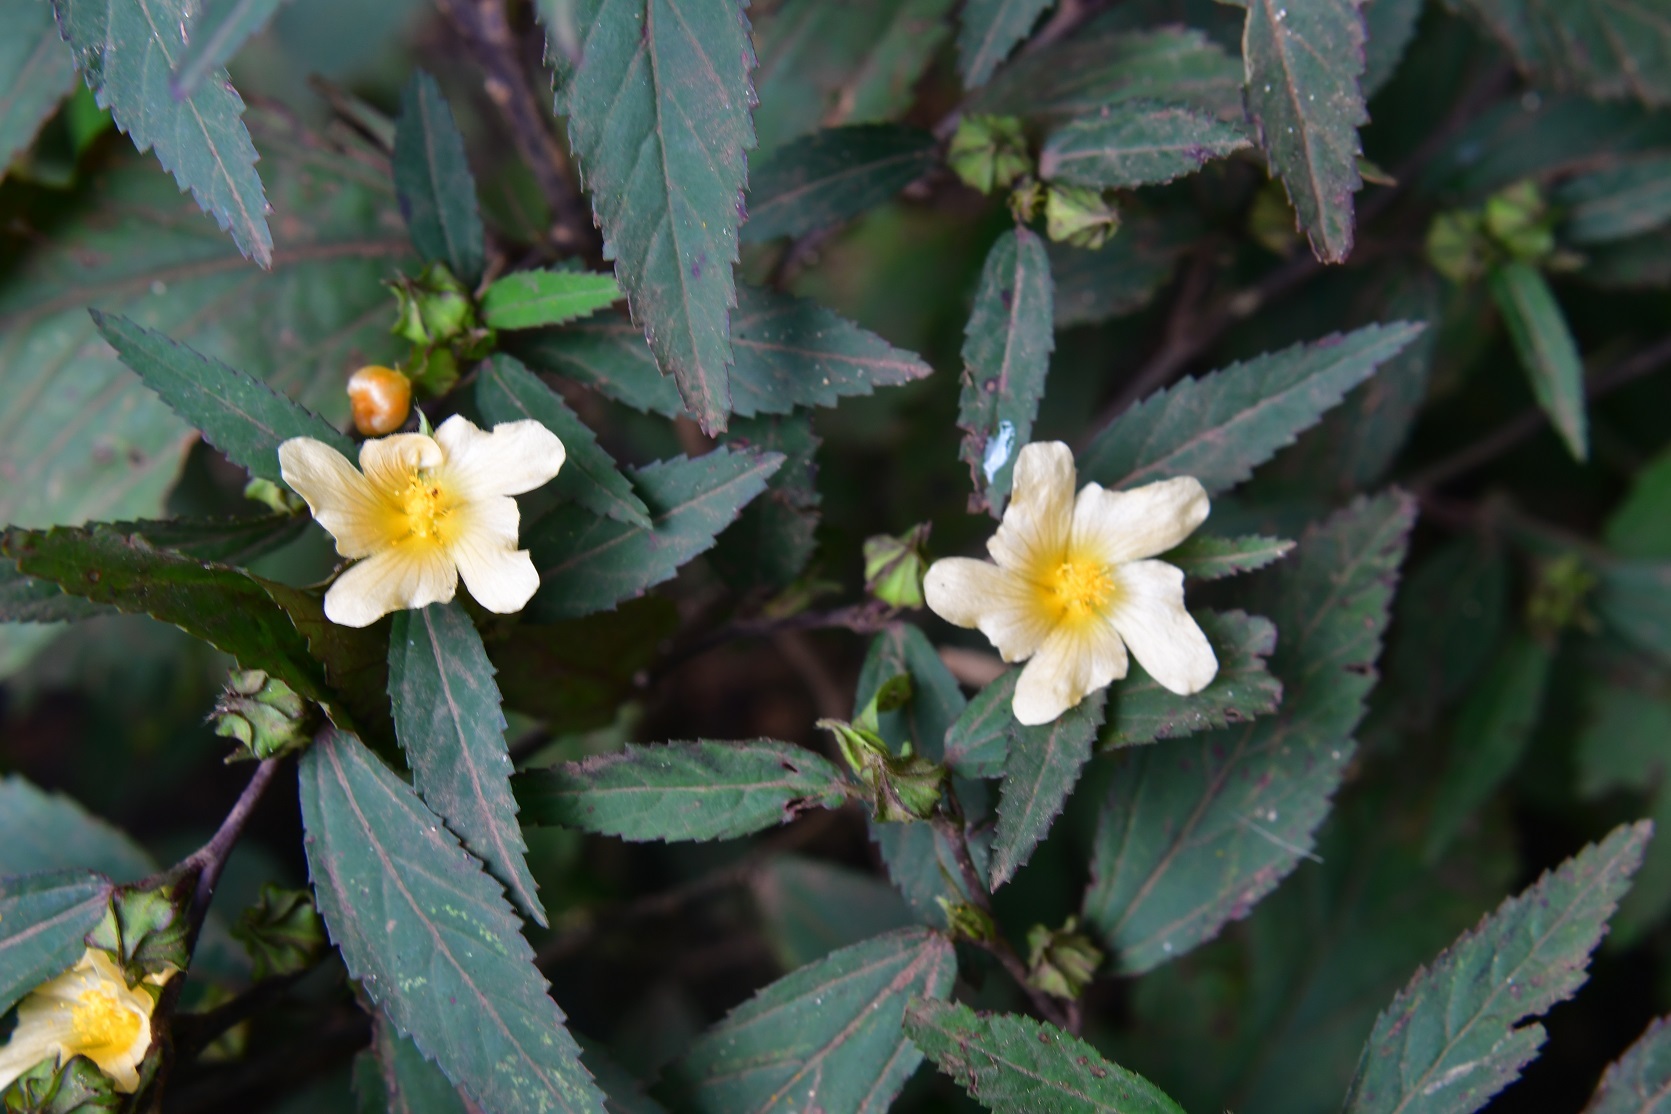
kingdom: Plantae
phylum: Tracheophyta
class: Magnoliopsida
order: Malvales
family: Malvaceae
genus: Sida
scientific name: Sida rhombifolia
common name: Queensland-hemp
